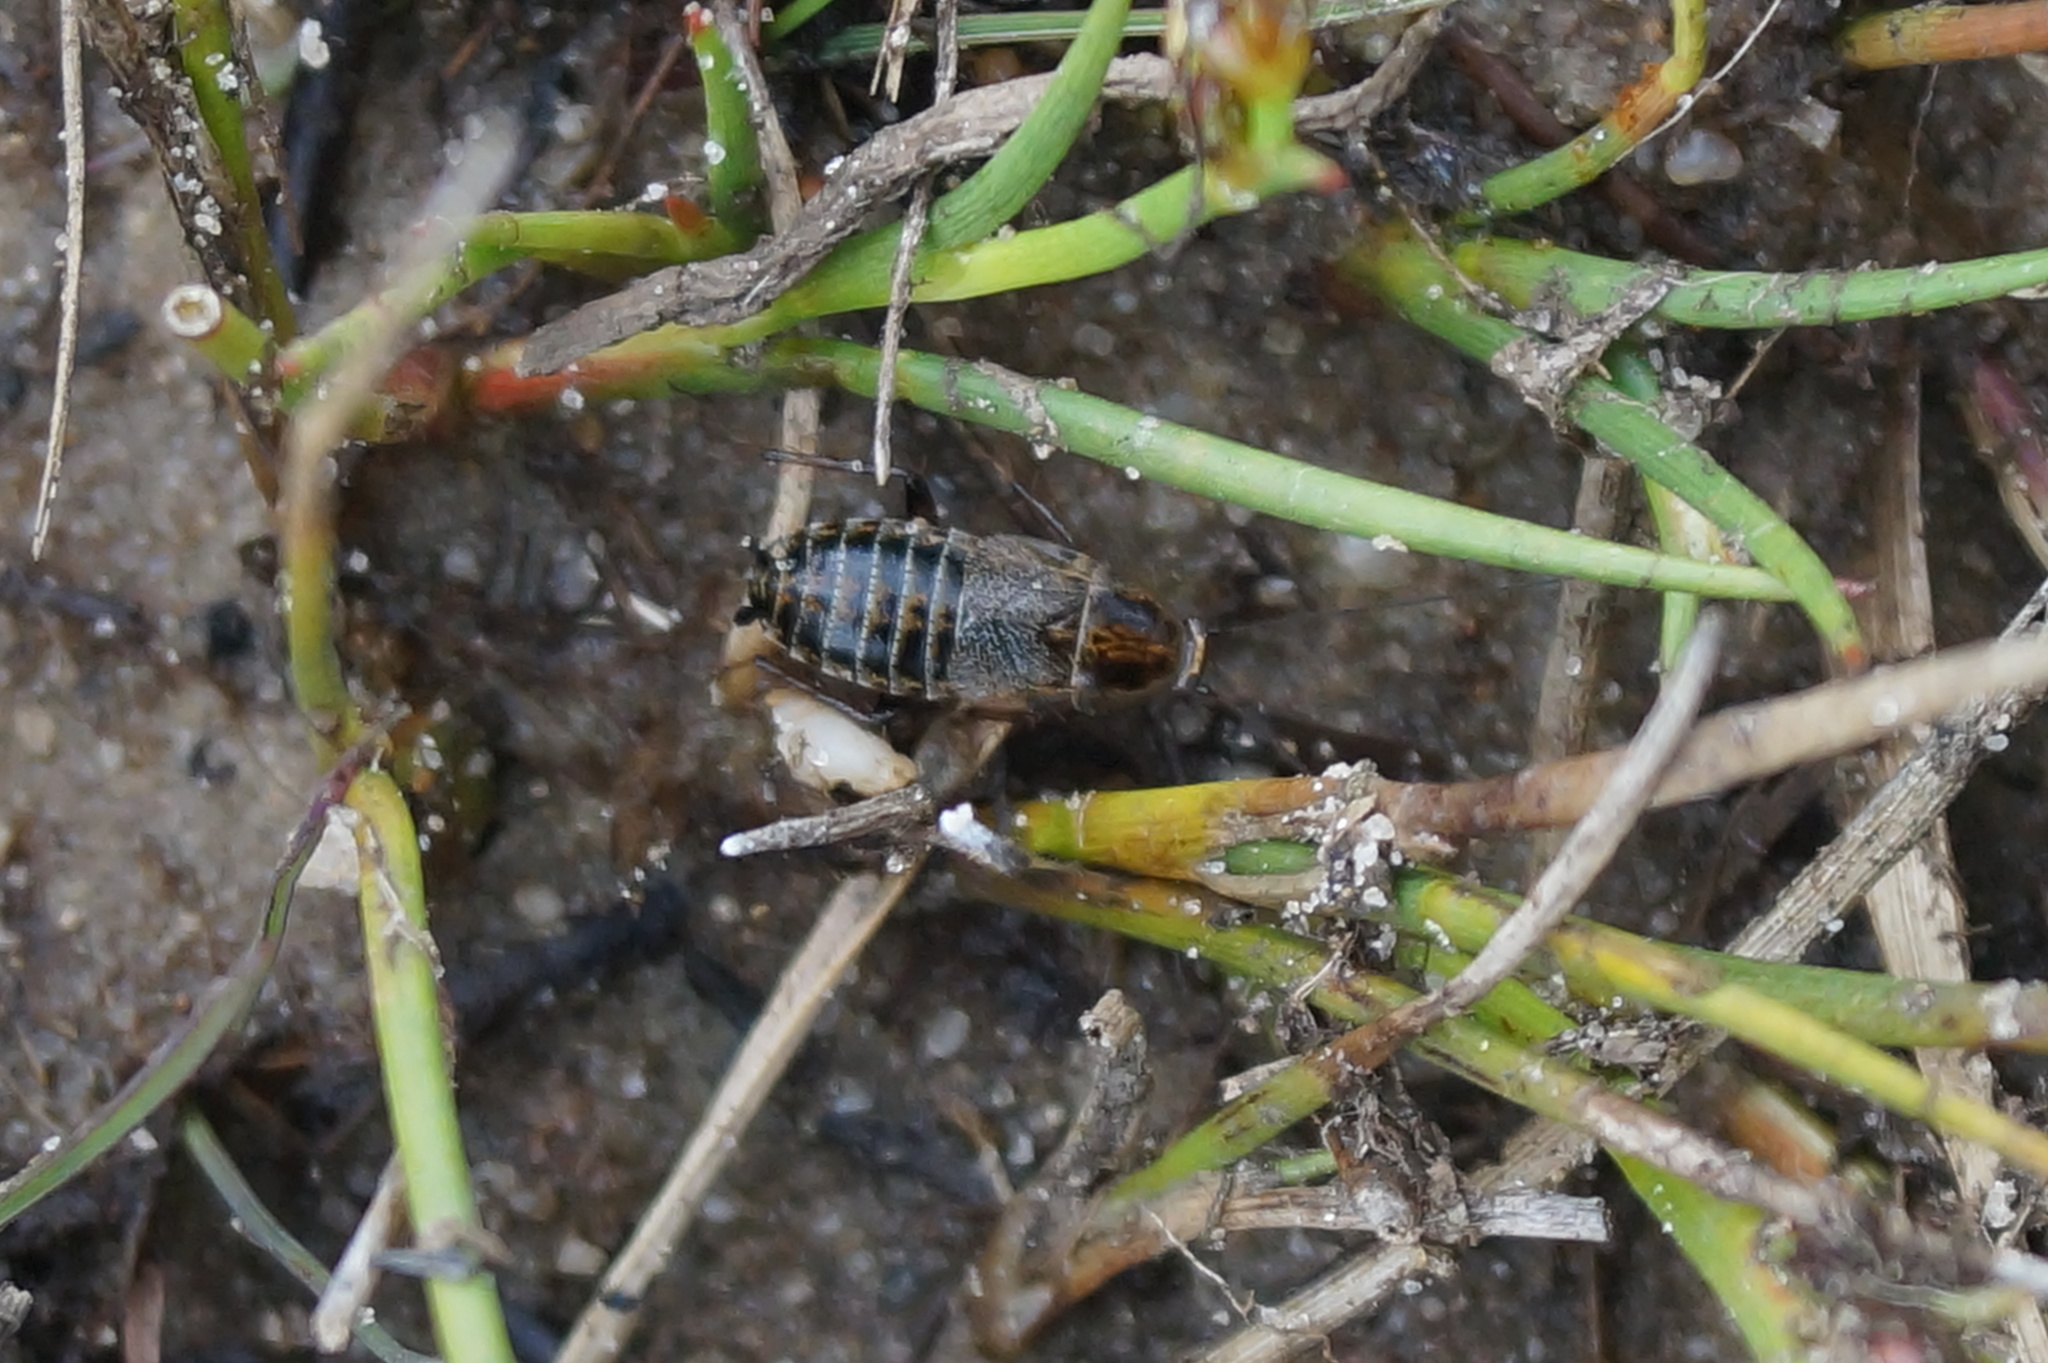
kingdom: Animalia
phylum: Arthropoda
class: Insecta
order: Blattodea
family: Ectobiidae
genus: Capraiellus
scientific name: Capraiellus panzeri
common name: Lesser cockroach
